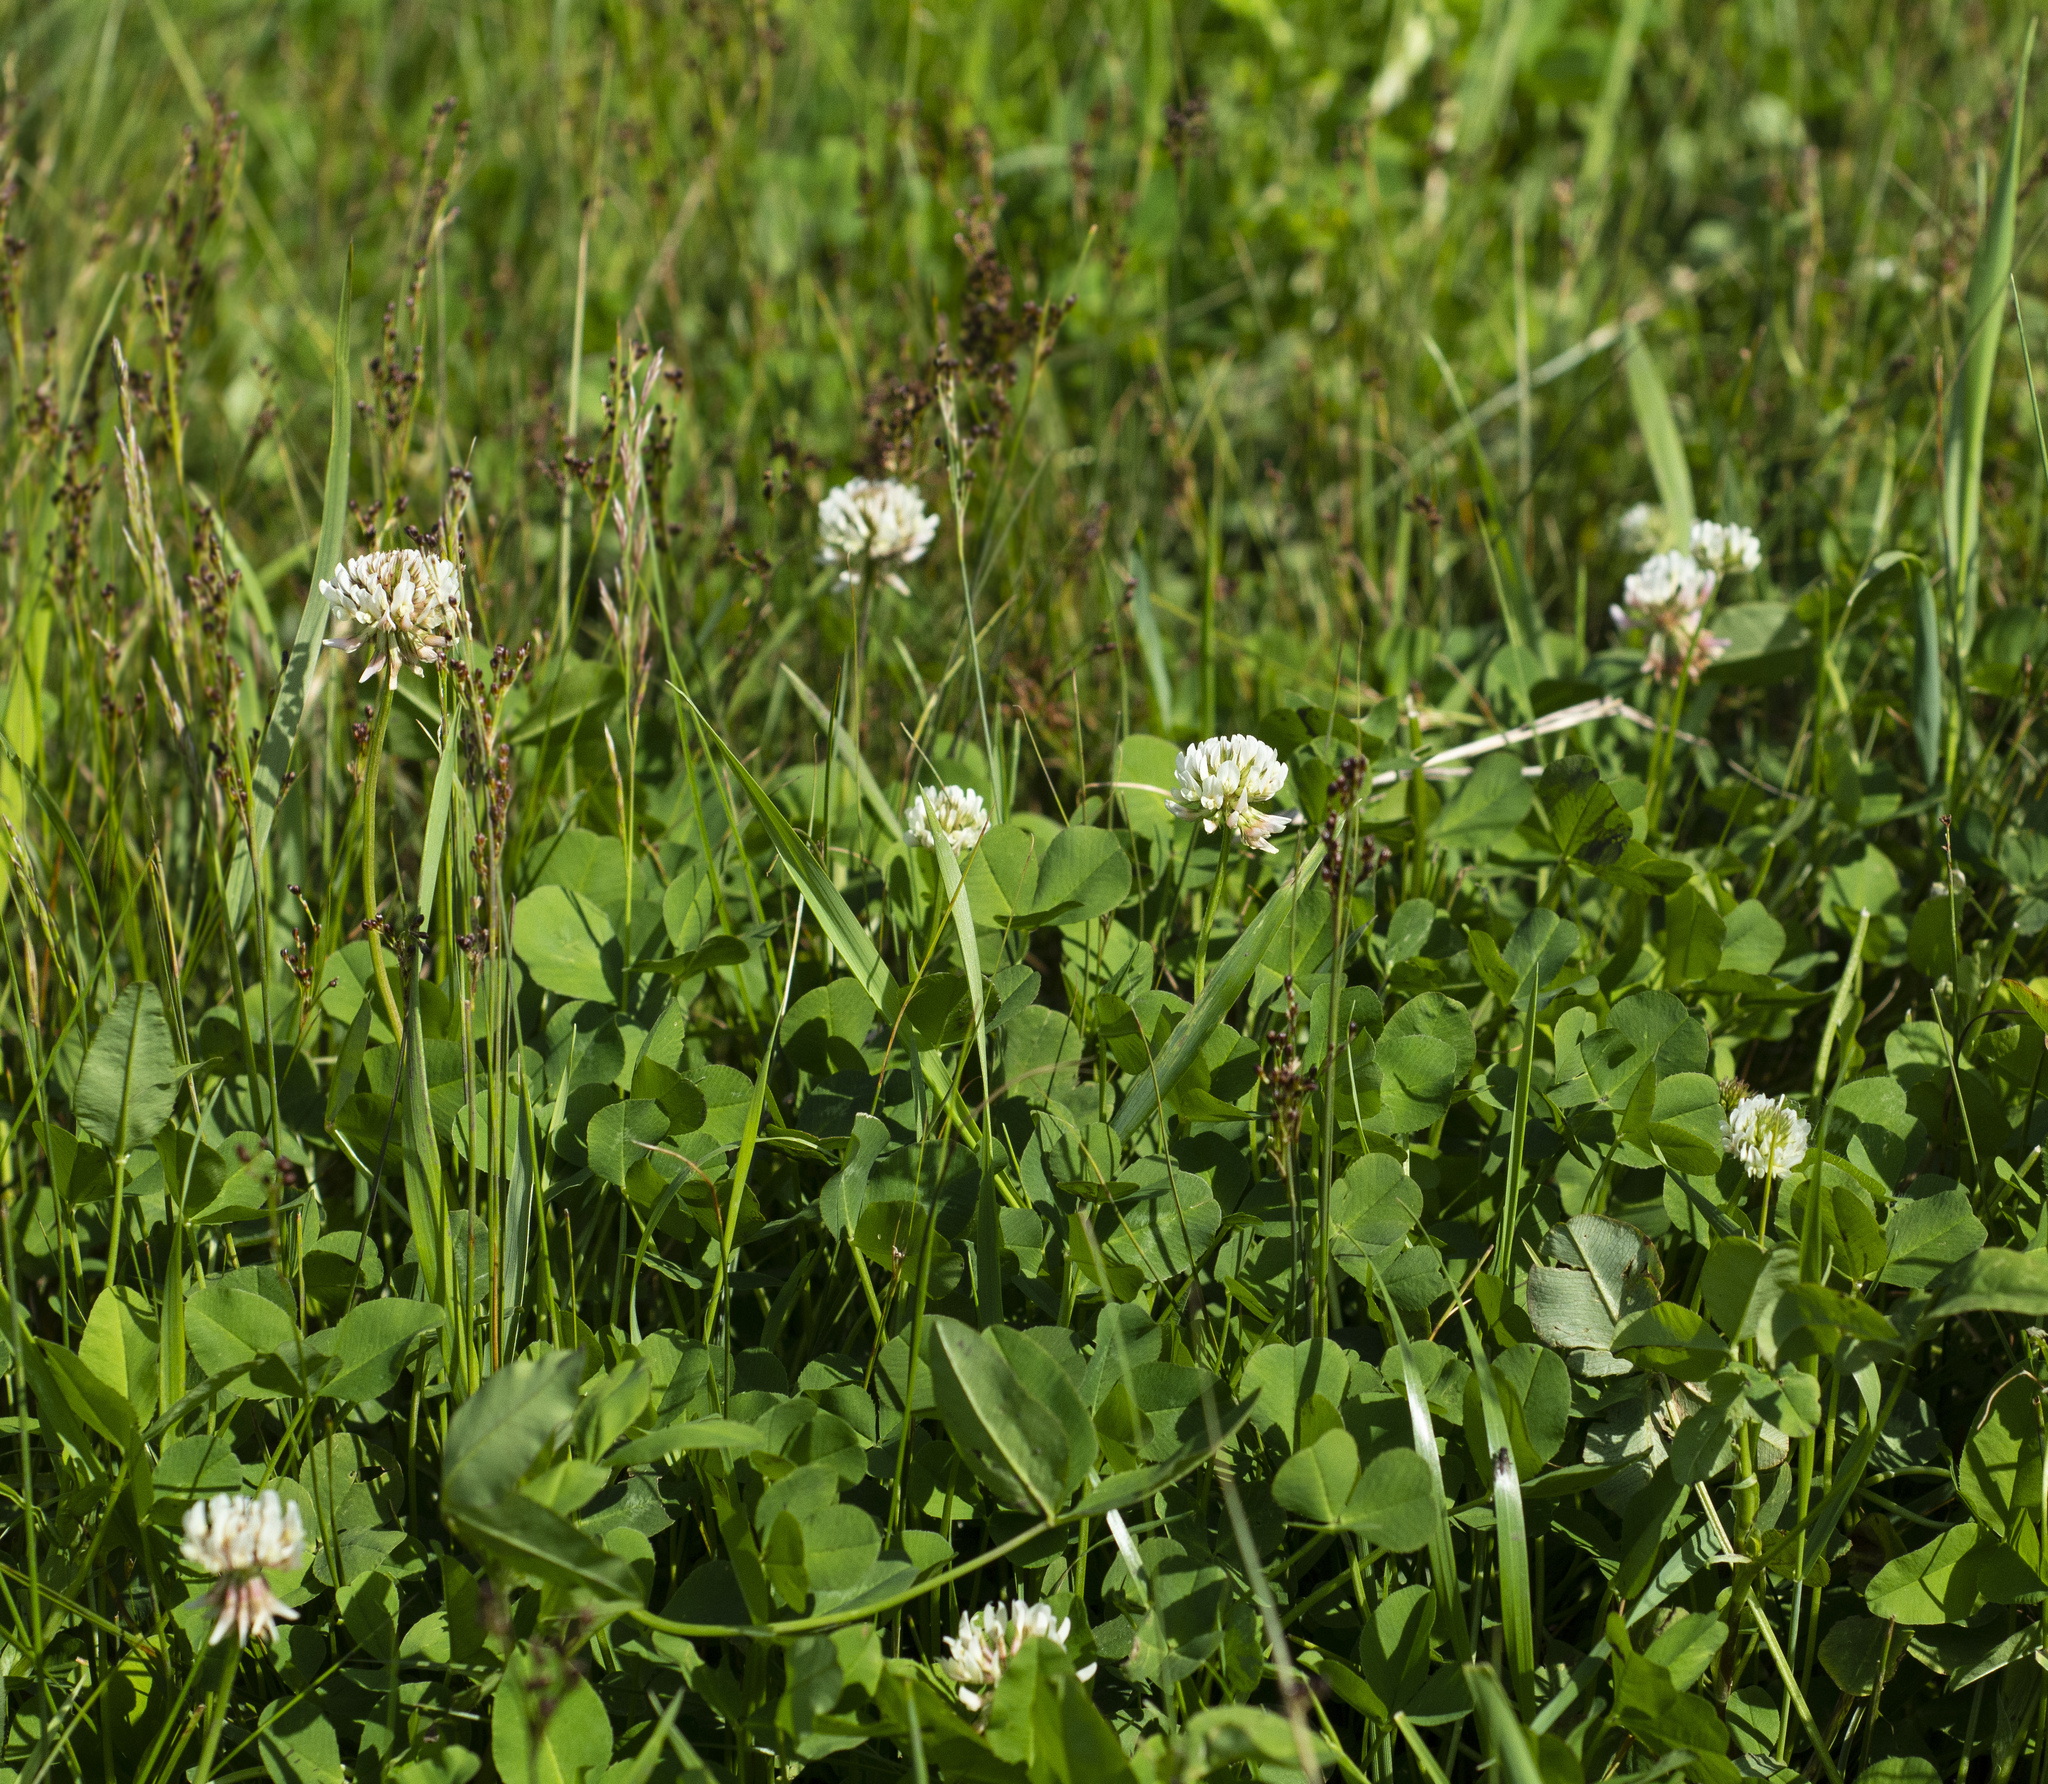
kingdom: Plantae
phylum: Tracheophyta
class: Magnoliopsida
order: Fabales
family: Fabaceae
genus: Trifolium
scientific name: Trifolium repens
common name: White clover
